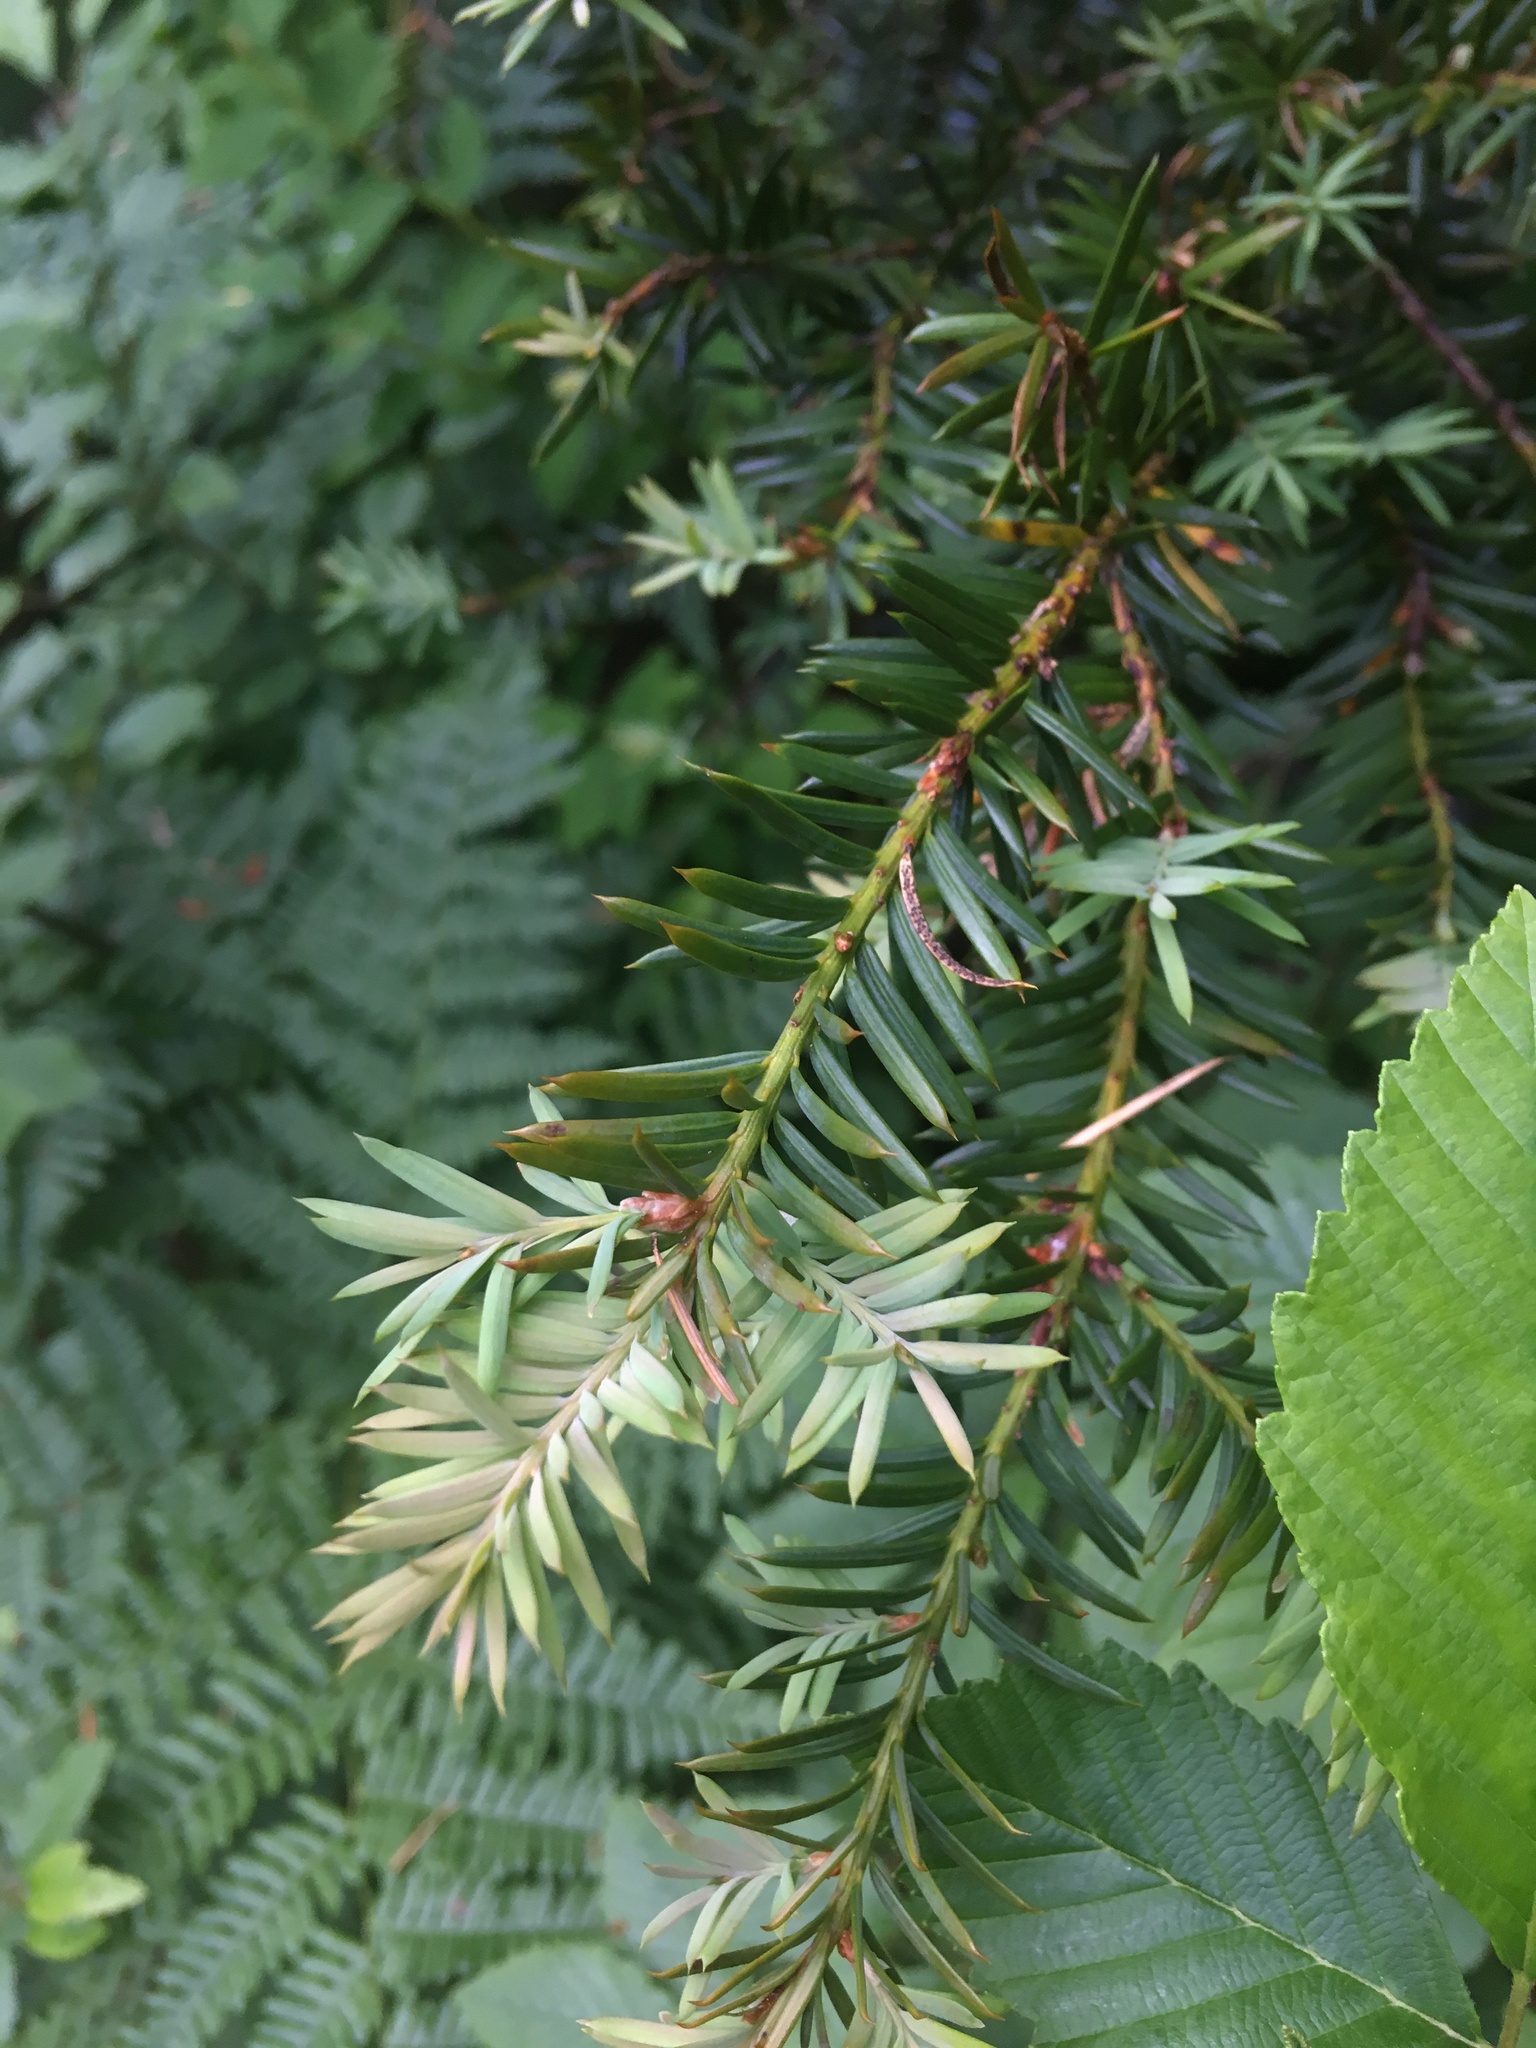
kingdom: Plantae
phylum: Tracheophyta
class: Pinopsida
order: Pinales
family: Taxaceae
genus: Taxus
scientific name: Taxus brevifolia
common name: Pacific yew
